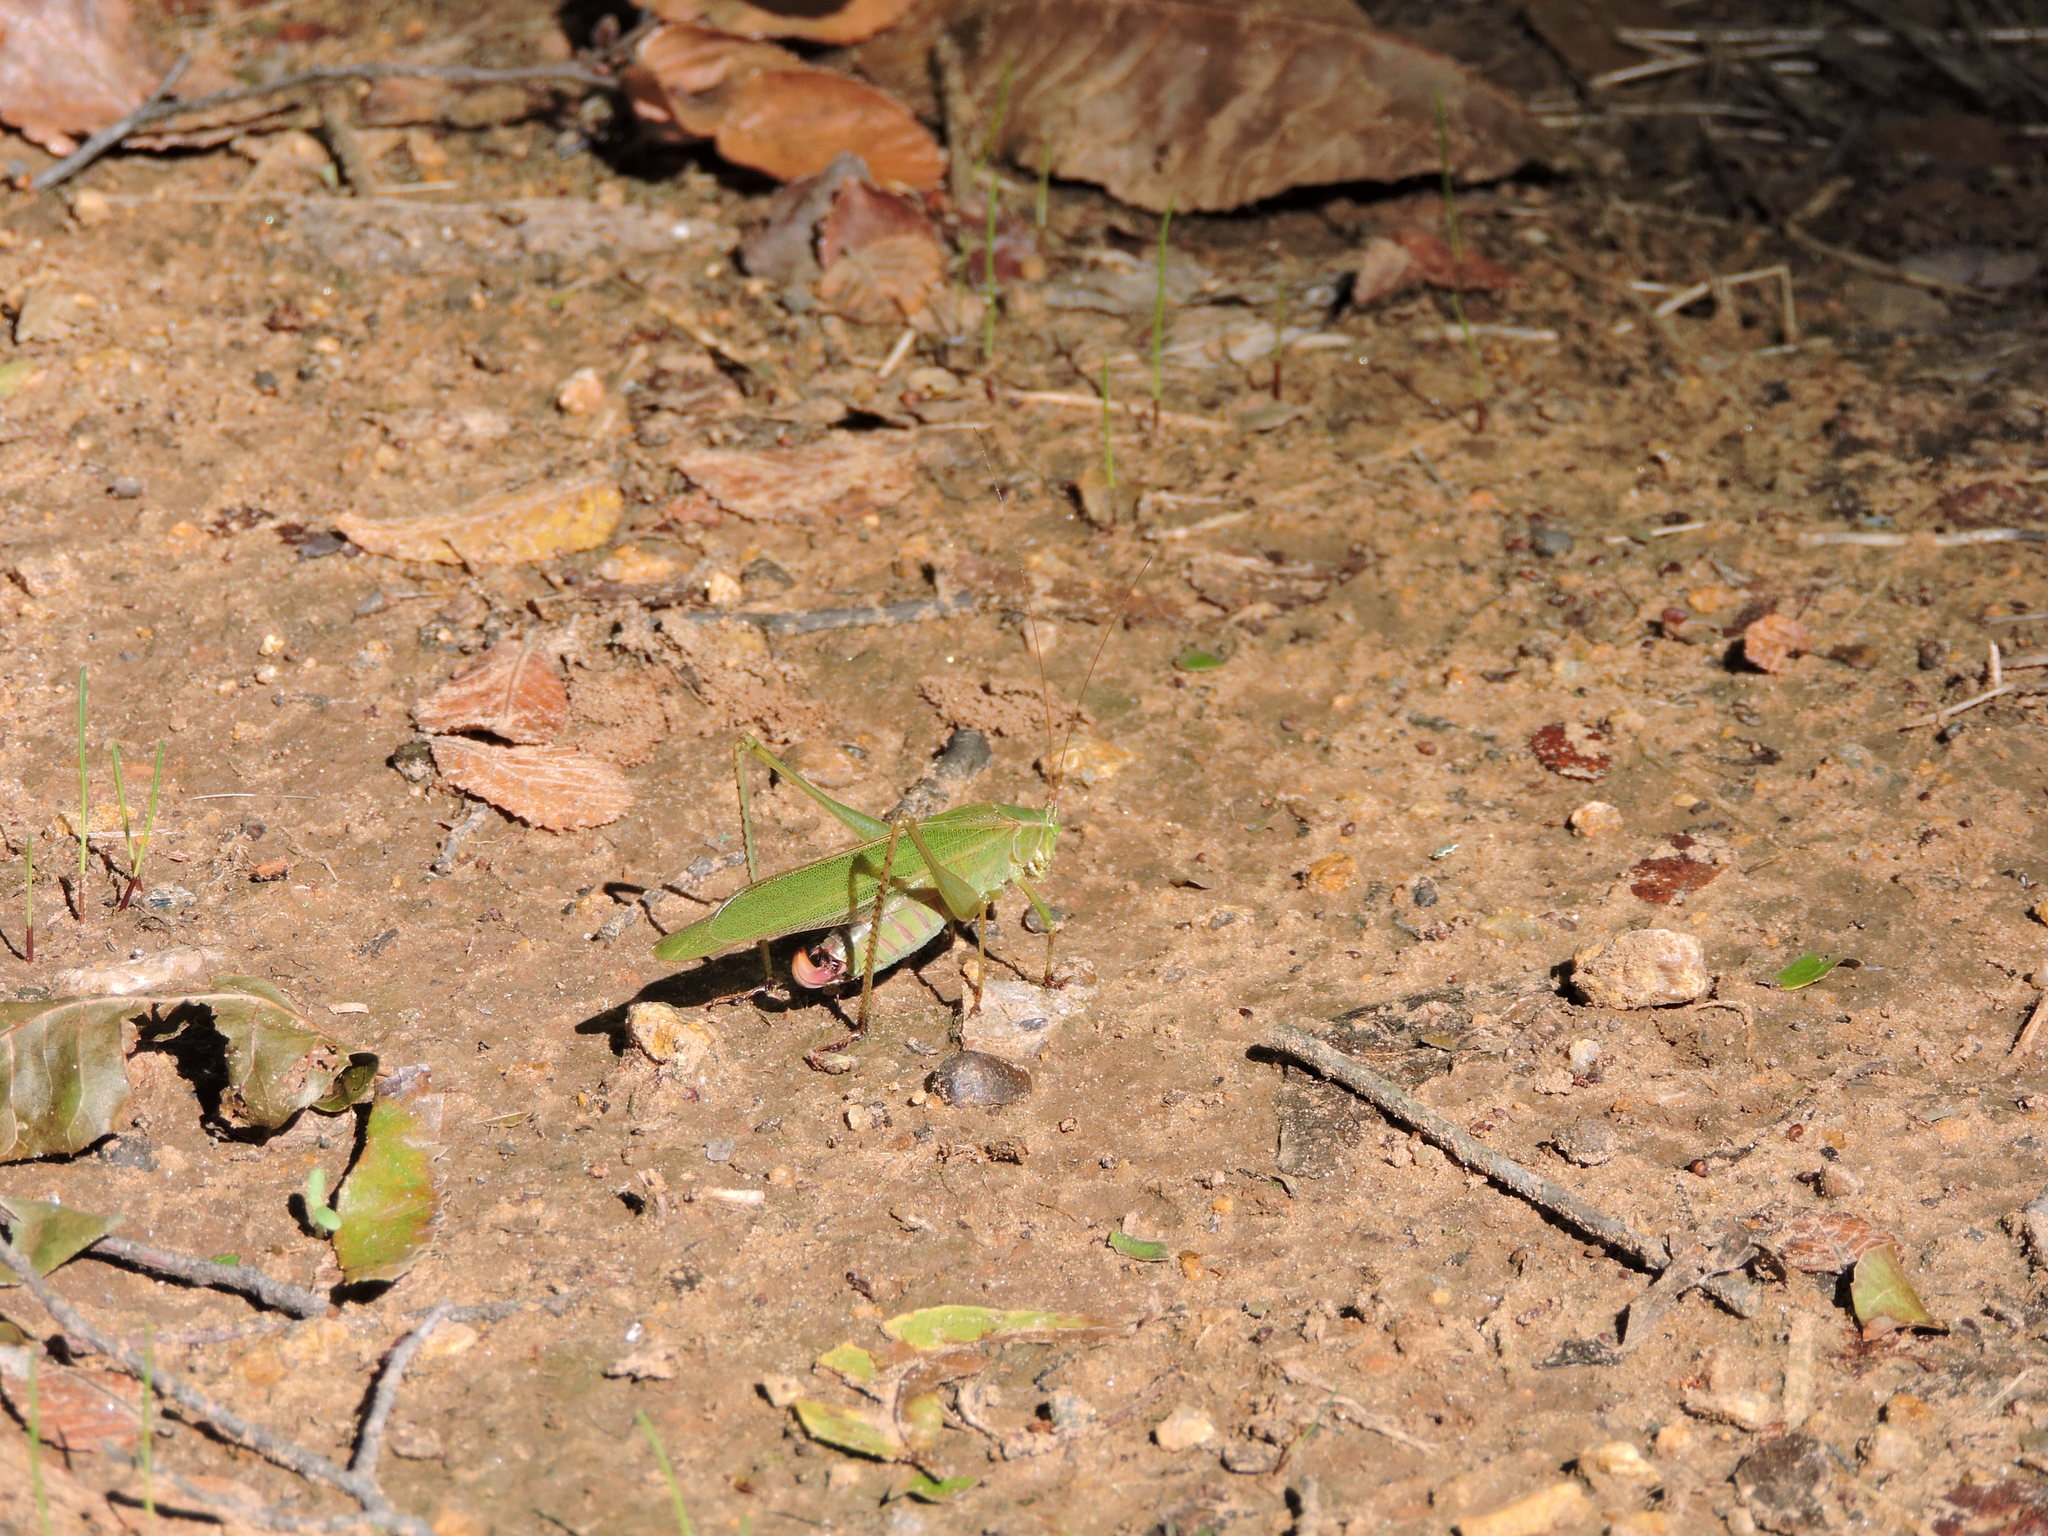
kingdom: Animalia
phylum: Arthropoda
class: Insecta
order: Orthoptera
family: Tettigoniidae
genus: Scudderia
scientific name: Scudderia furcata
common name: Fork-tailed bush katydid
